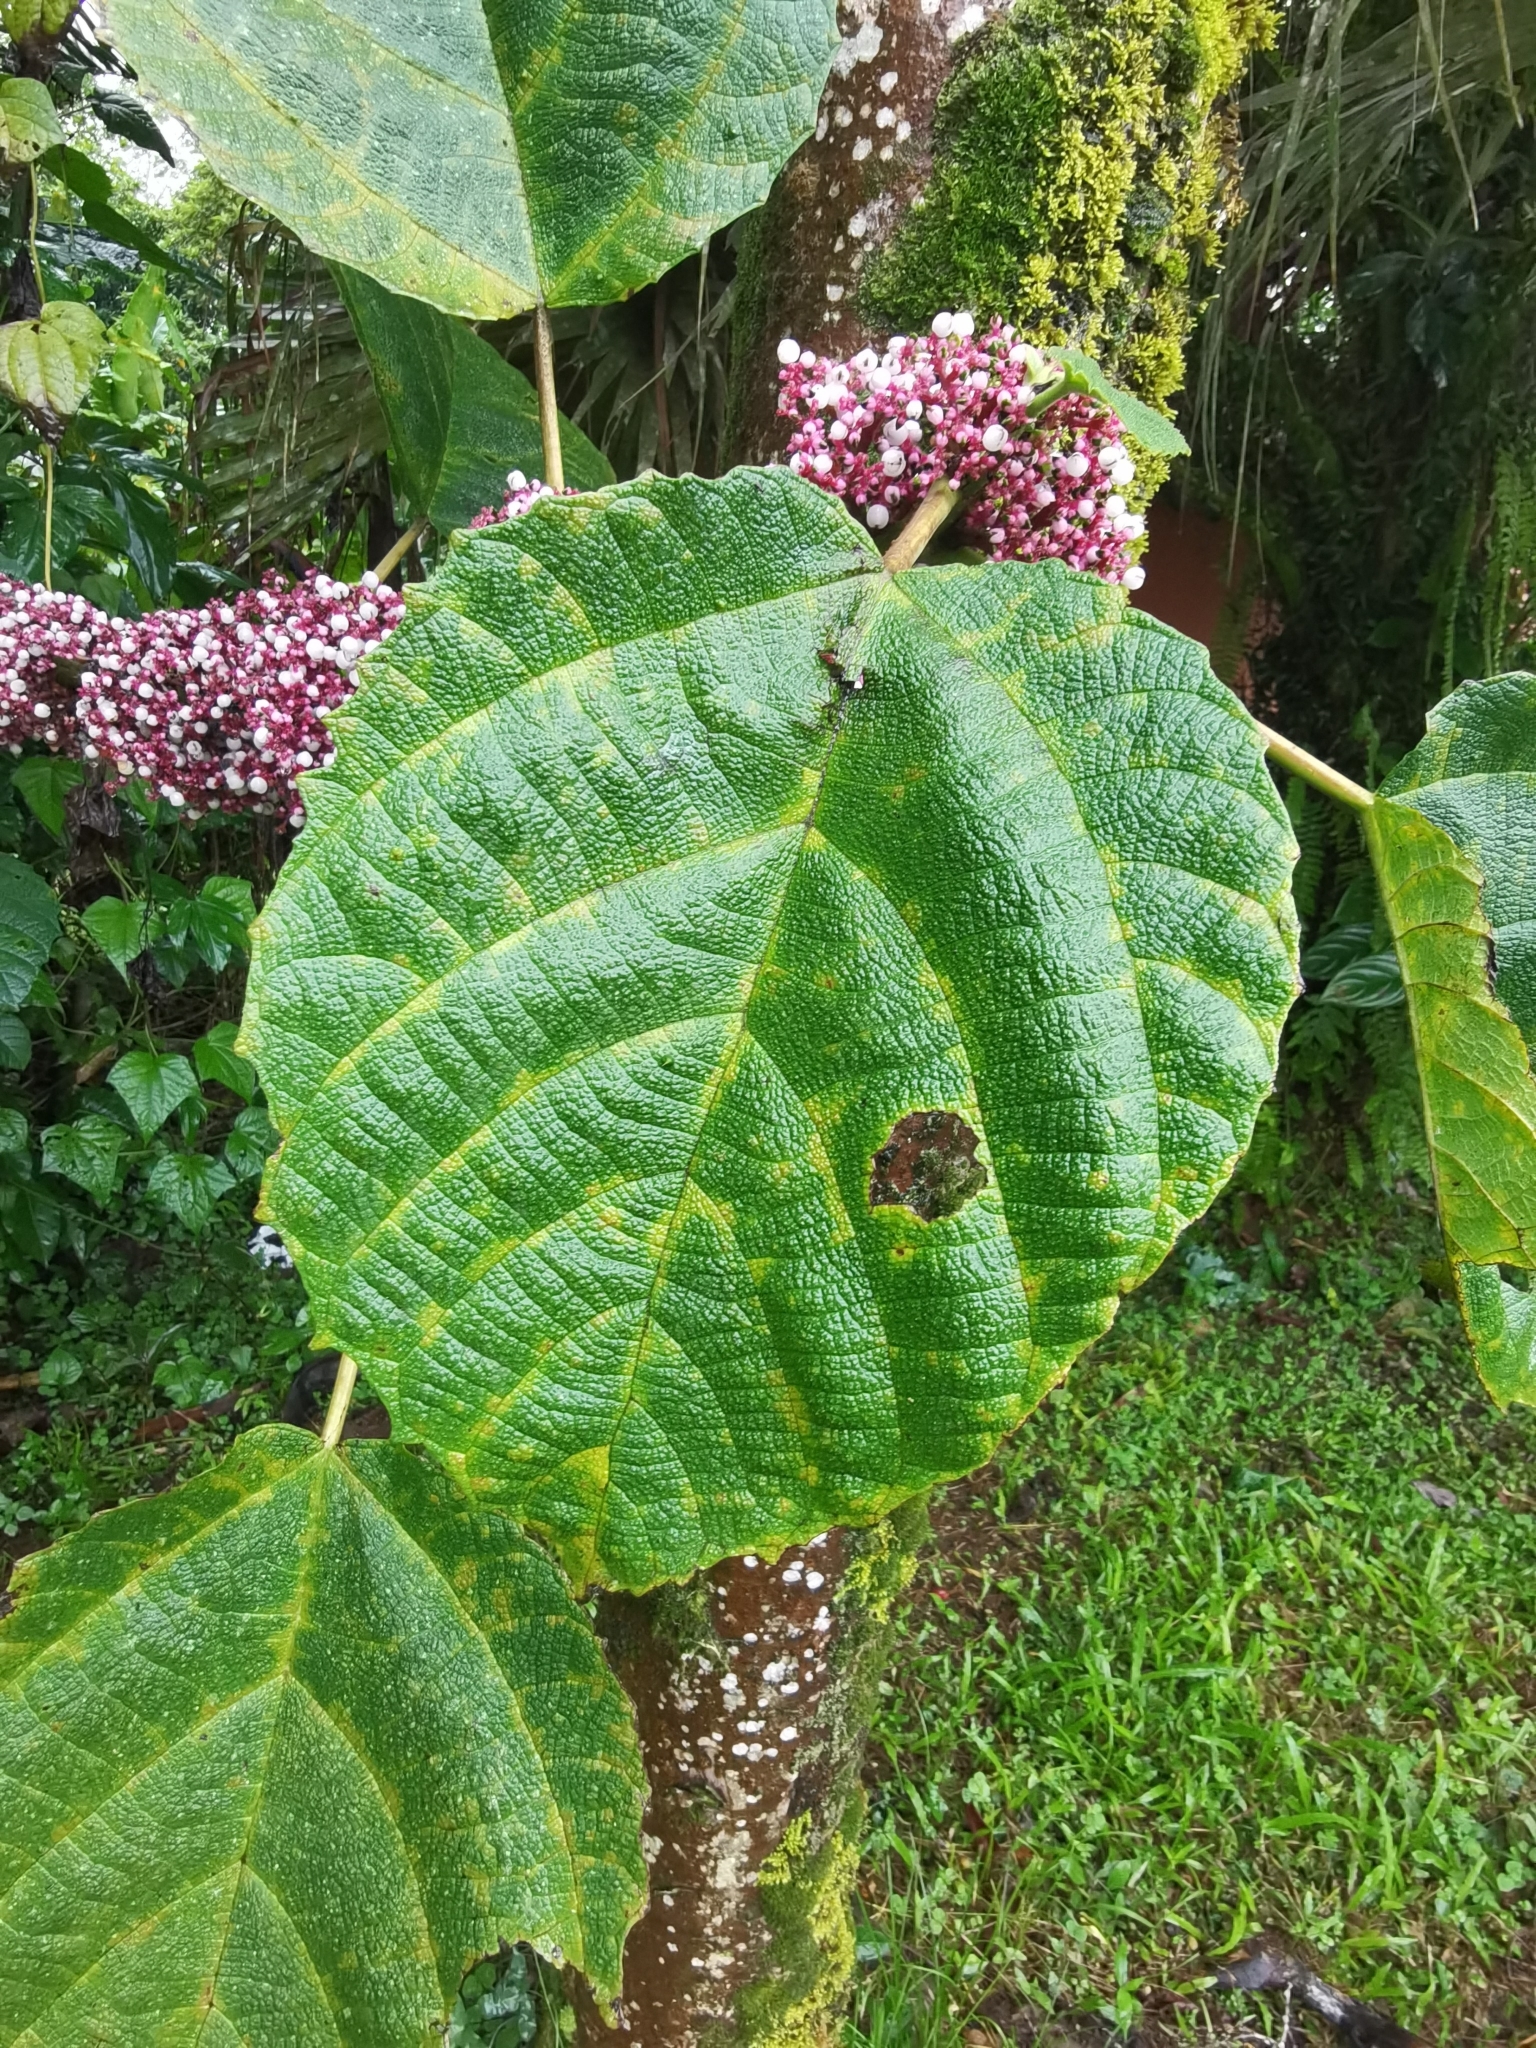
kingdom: Plantae
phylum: Tracheophyta
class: Magnoliopsida
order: Rosales
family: Urticaceae
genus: Urera
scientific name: Urera baccifera
